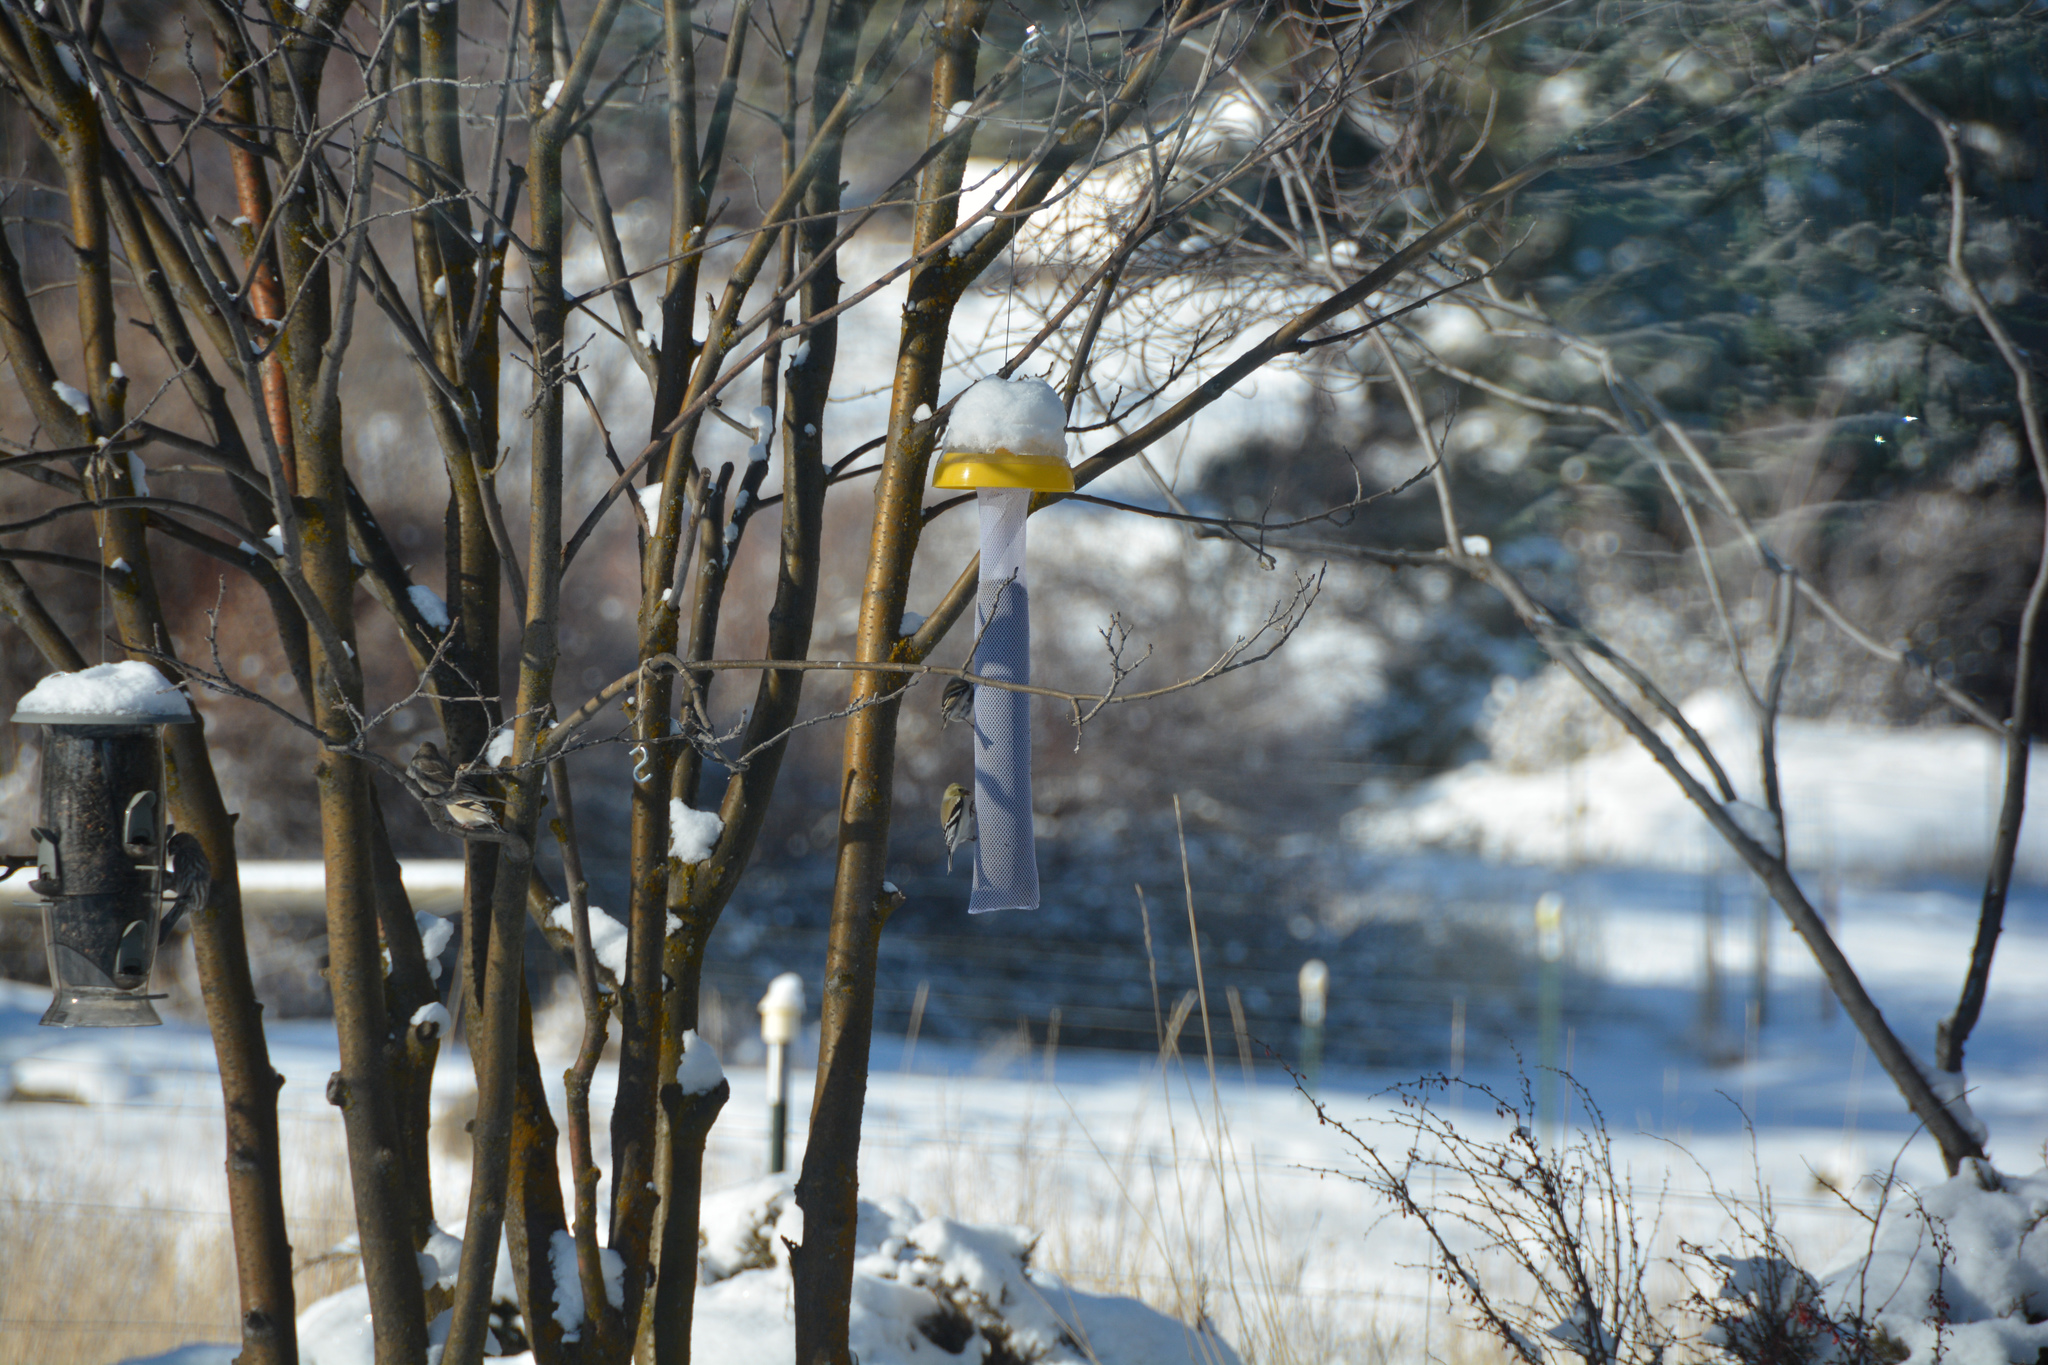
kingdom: Animalia
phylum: Chordata
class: Aves
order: Passeriformes
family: Fringillidae
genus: Spinus
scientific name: Spinus tristis
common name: American goldfinch
